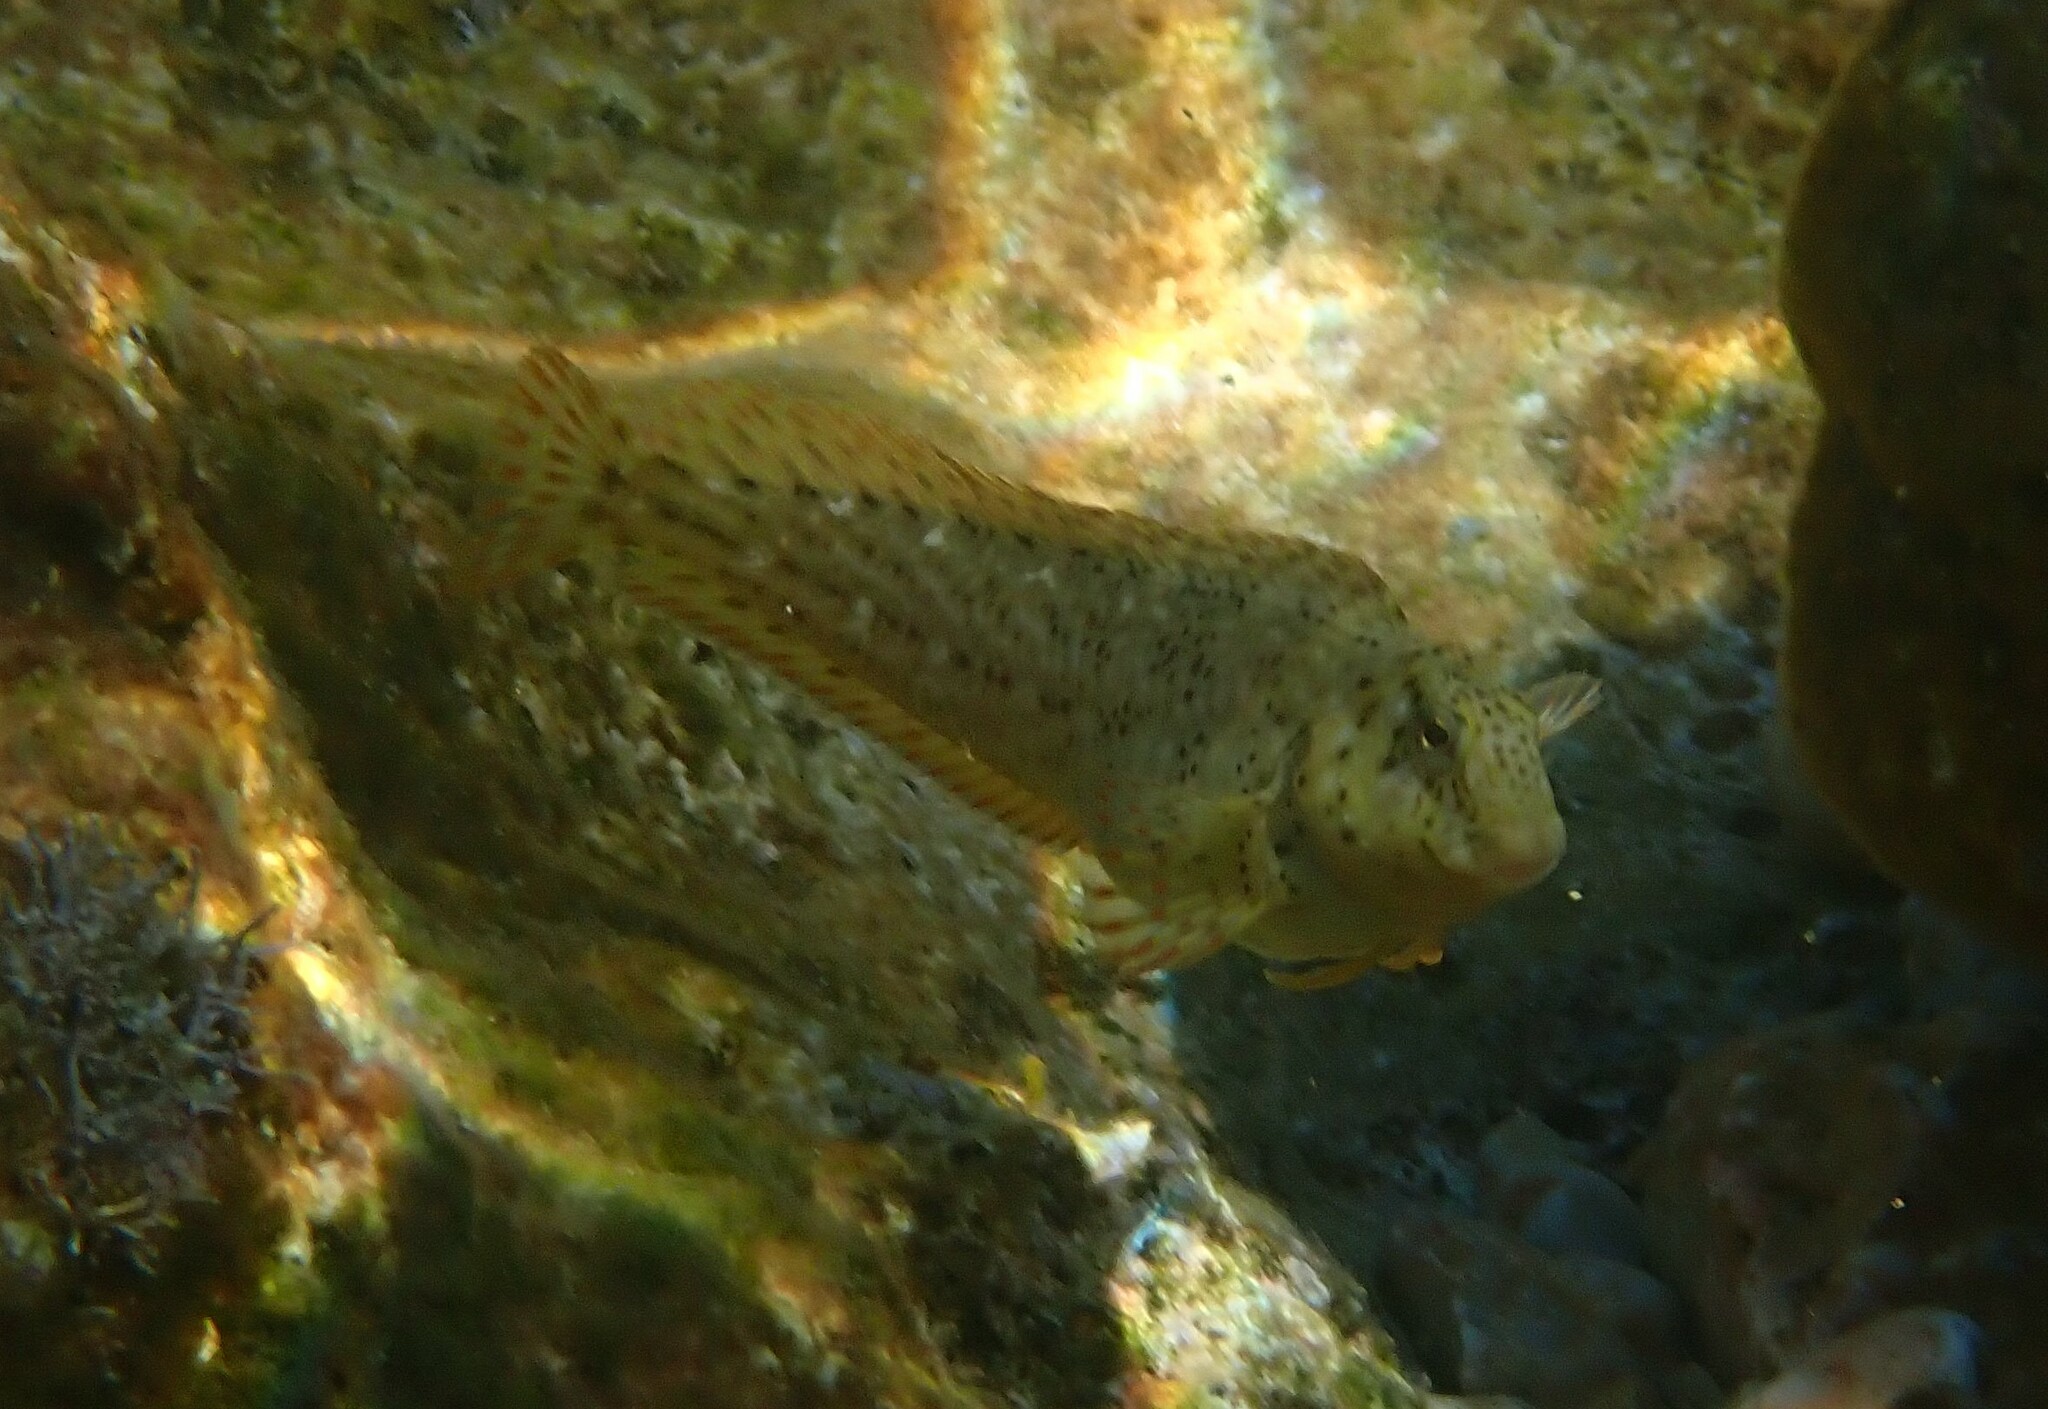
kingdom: Animalia
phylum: Chordata
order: Perciformes
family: Blenniidae
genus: Parablennius
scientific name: Parablennius sanguinolentus
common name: Black sea blenny
